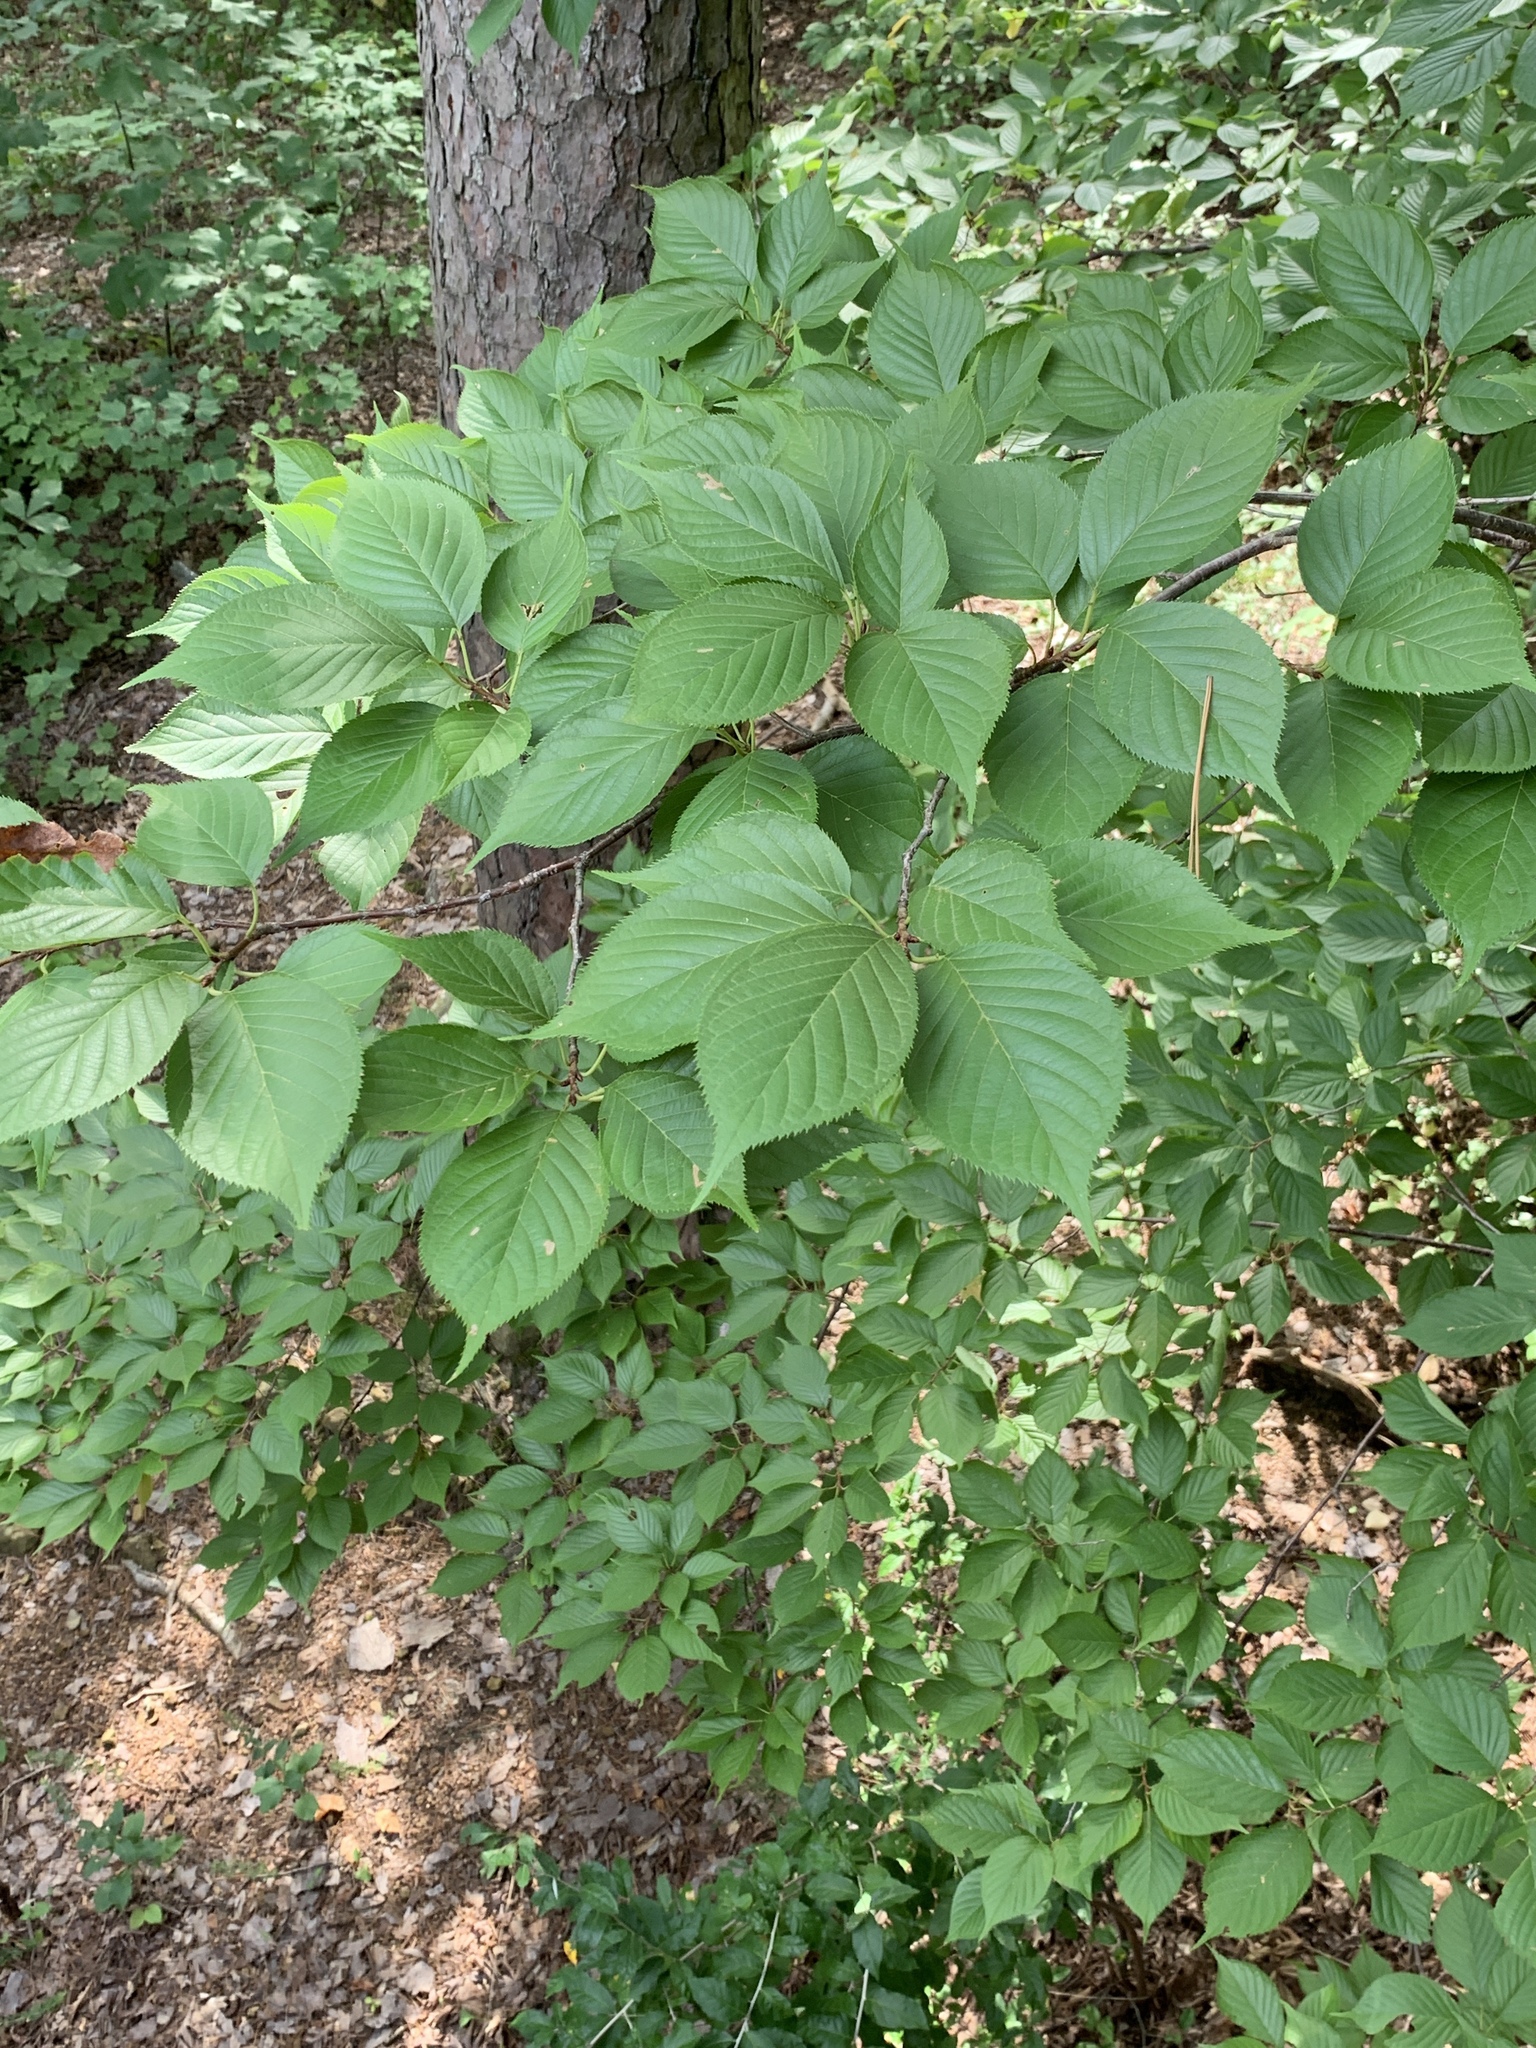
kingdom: Plantae
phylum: Tracheophyta
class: Magnoliopsida
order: Fagales
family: Betulaceae
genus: Ostrya
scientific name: Ostrya virginiana
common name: Ironwood
